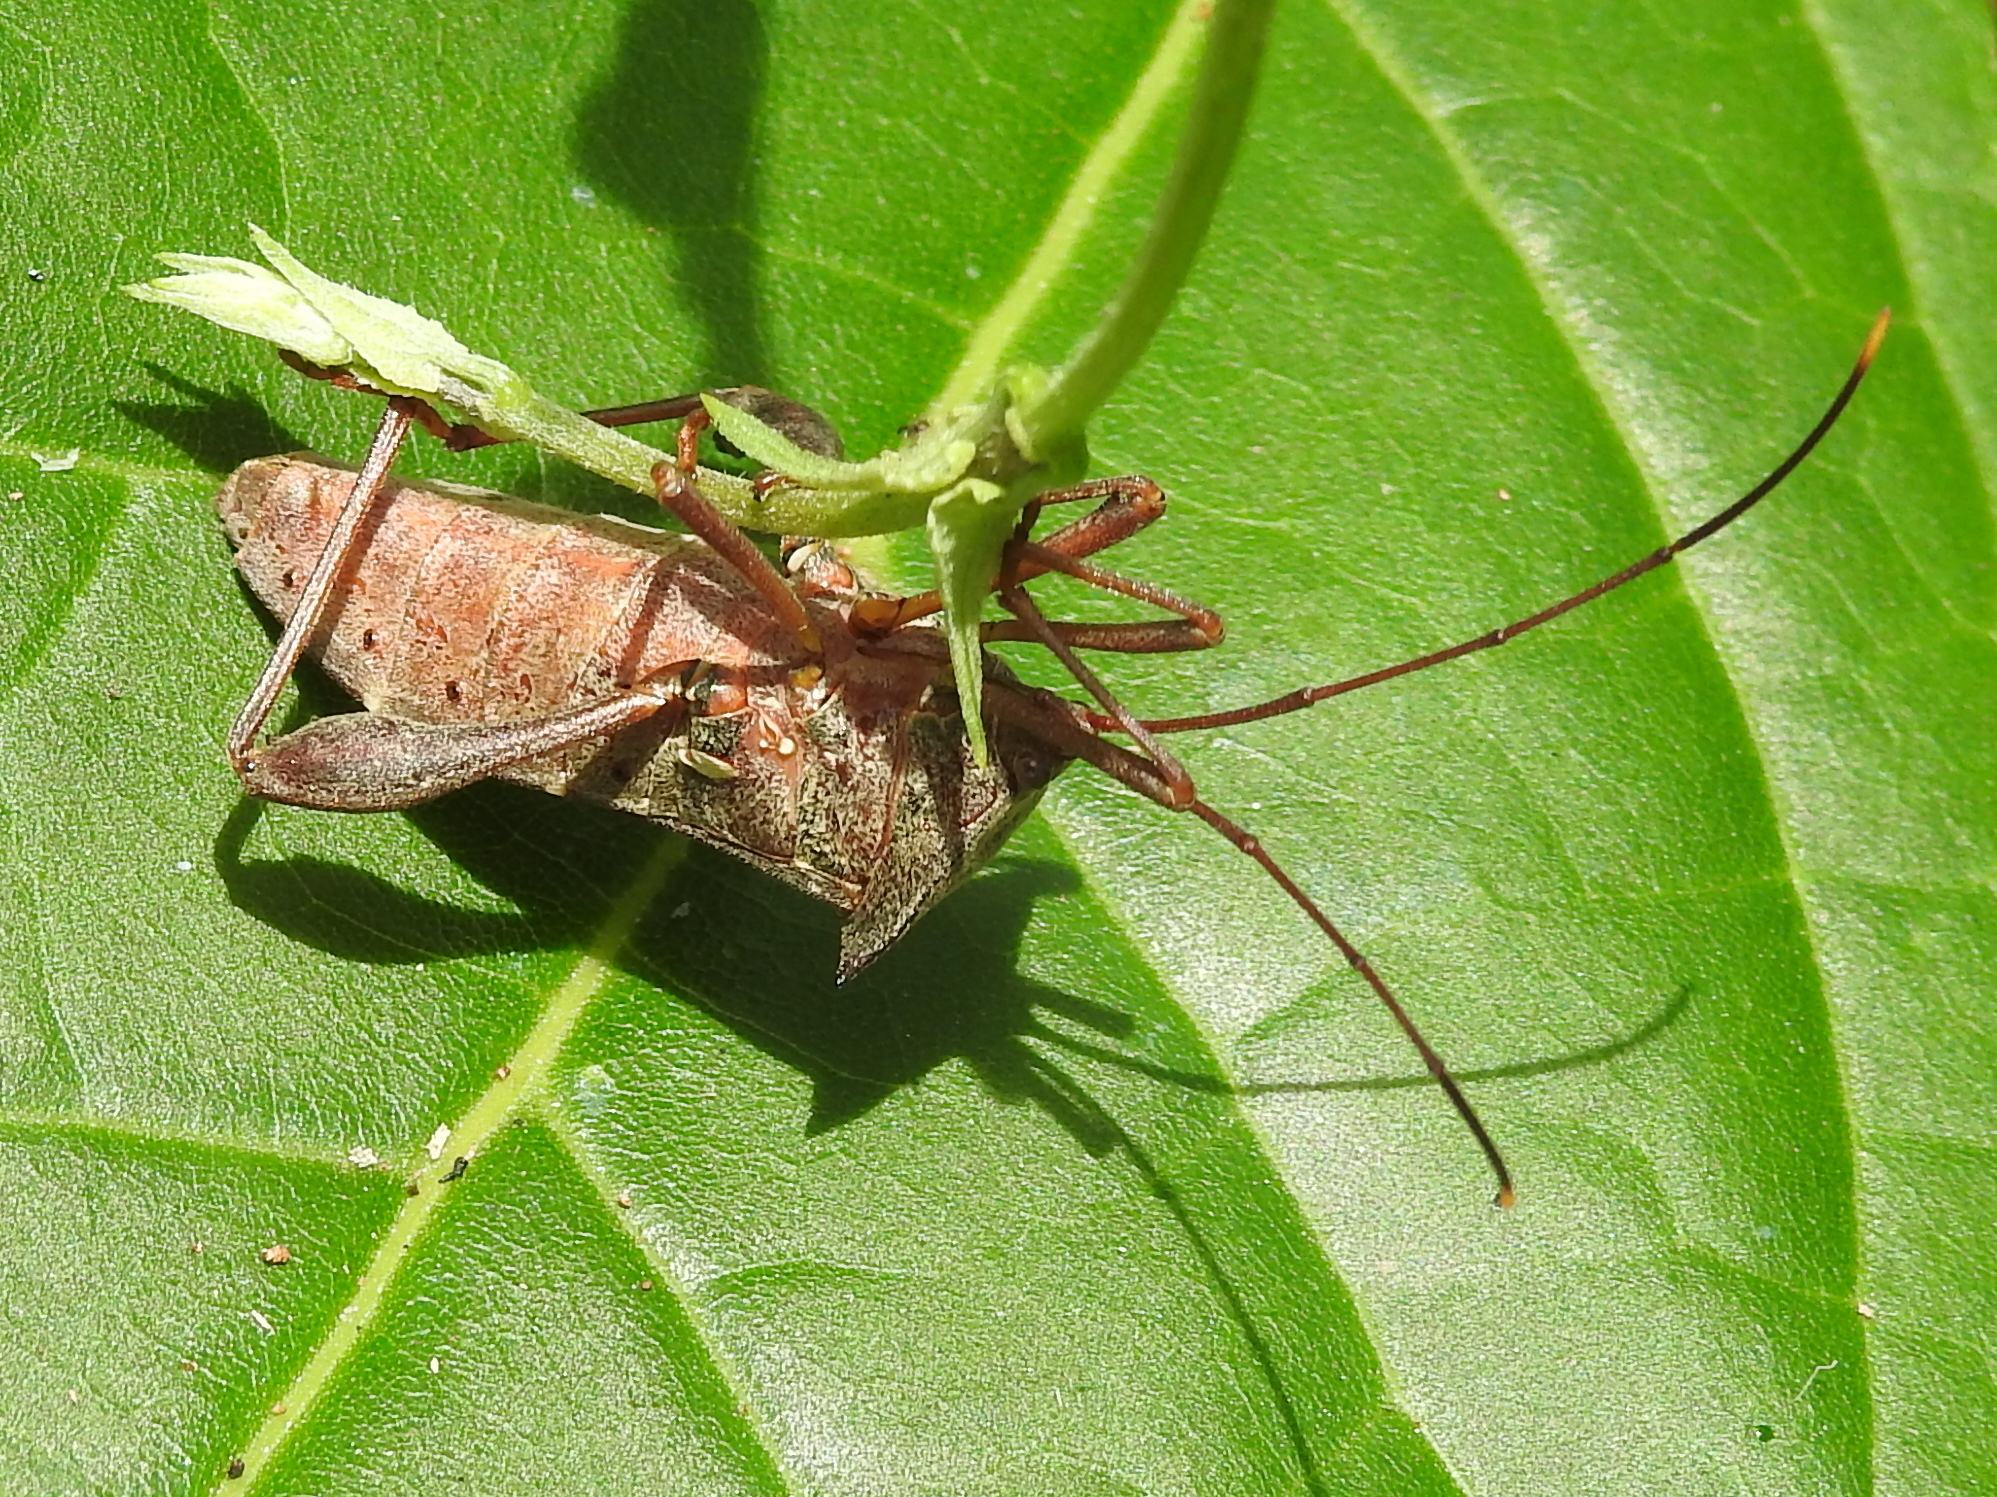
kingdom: Animalia
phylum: Arthropoda
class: Insecta
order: Hemiptera
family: Coreidae
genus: Mictis
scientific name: Mictis longicornis
